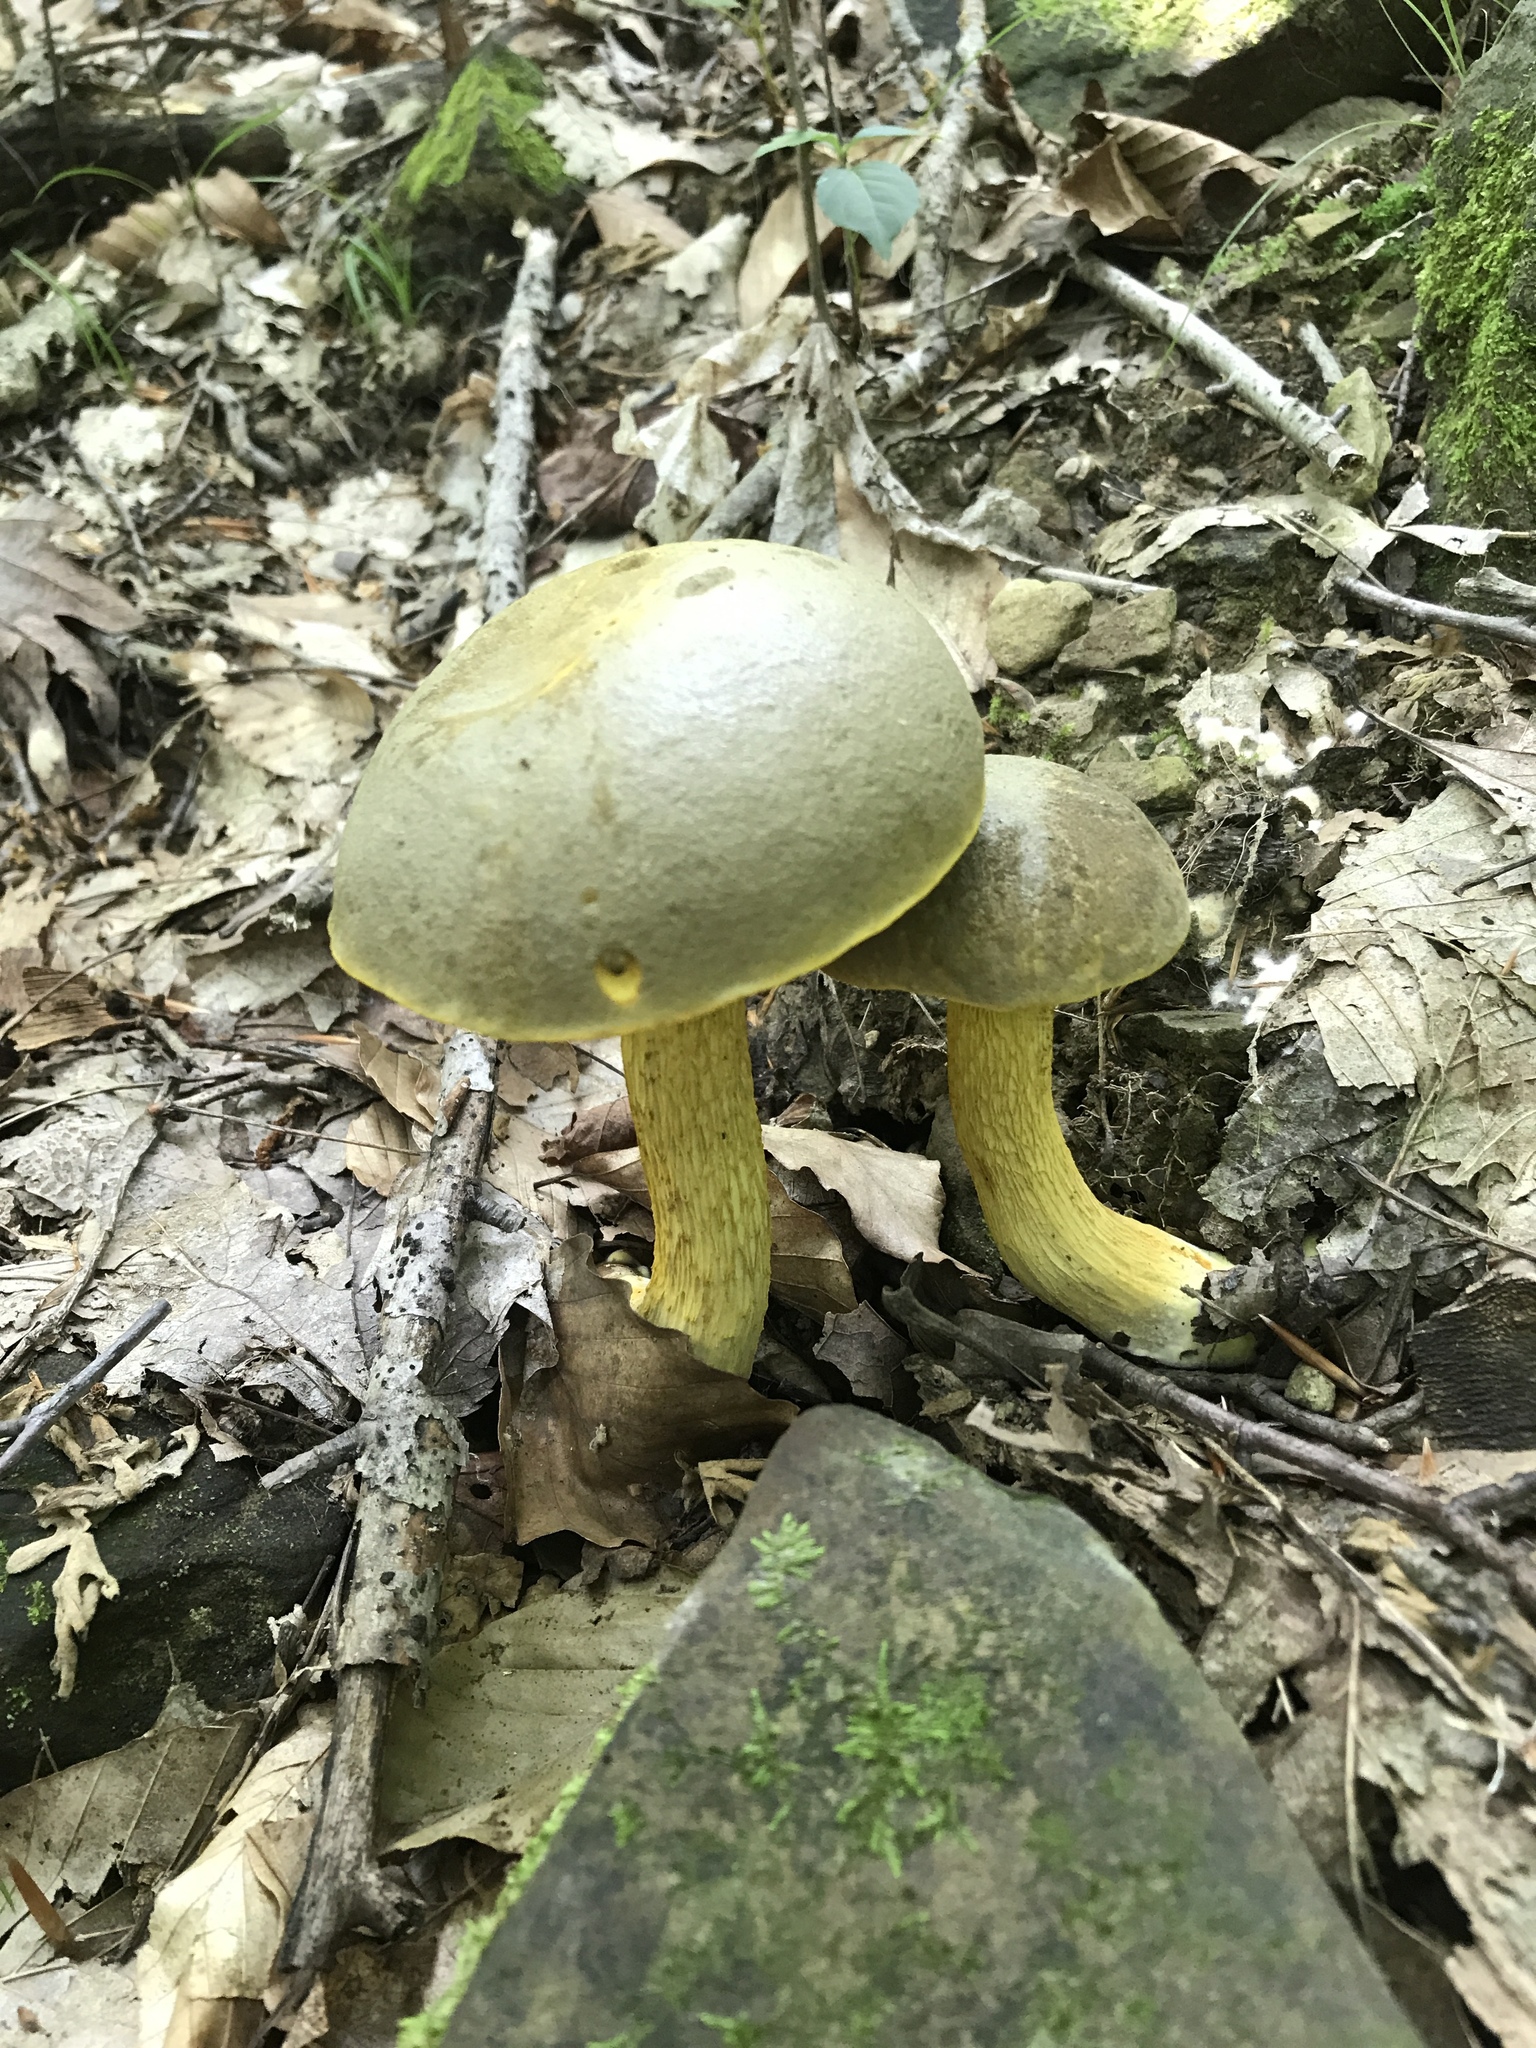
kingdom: Fungi
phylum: Basidiomycota
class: Agaricomycetes
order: Boletales
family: Boletaceae
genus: Retiboletus
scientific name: Retiboletus ornatipes
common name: Ornate-stalked bolete
